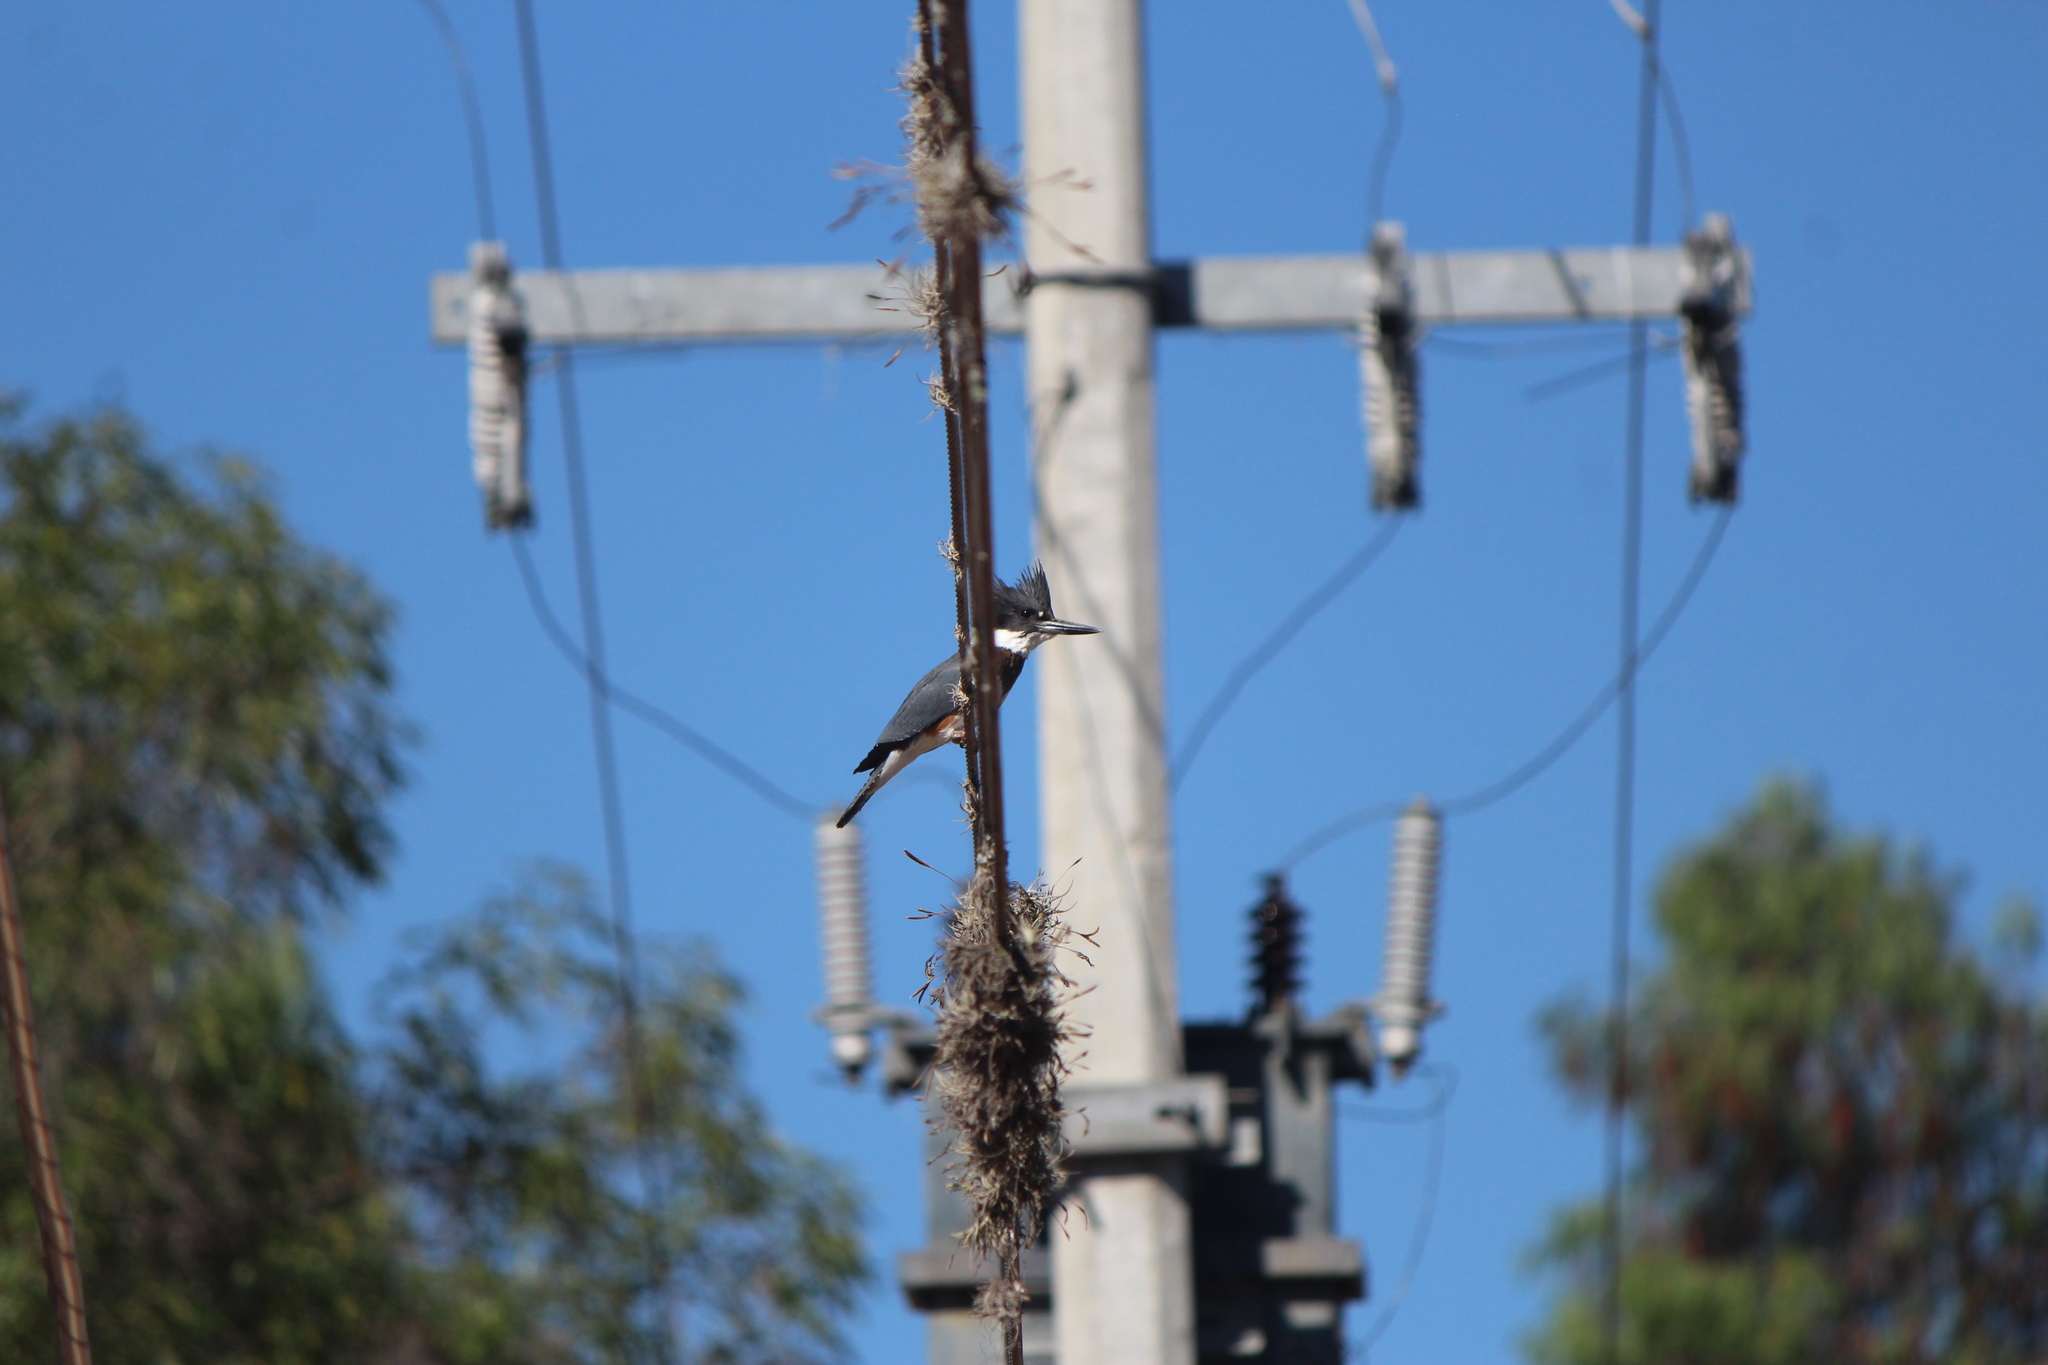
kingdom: Animalia
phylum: Chordata
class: Aves
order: Coraciiformes
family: Alcedinidae
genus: Megaceryle
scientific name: Megaceryle alcyon
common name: Belted kingfisher
